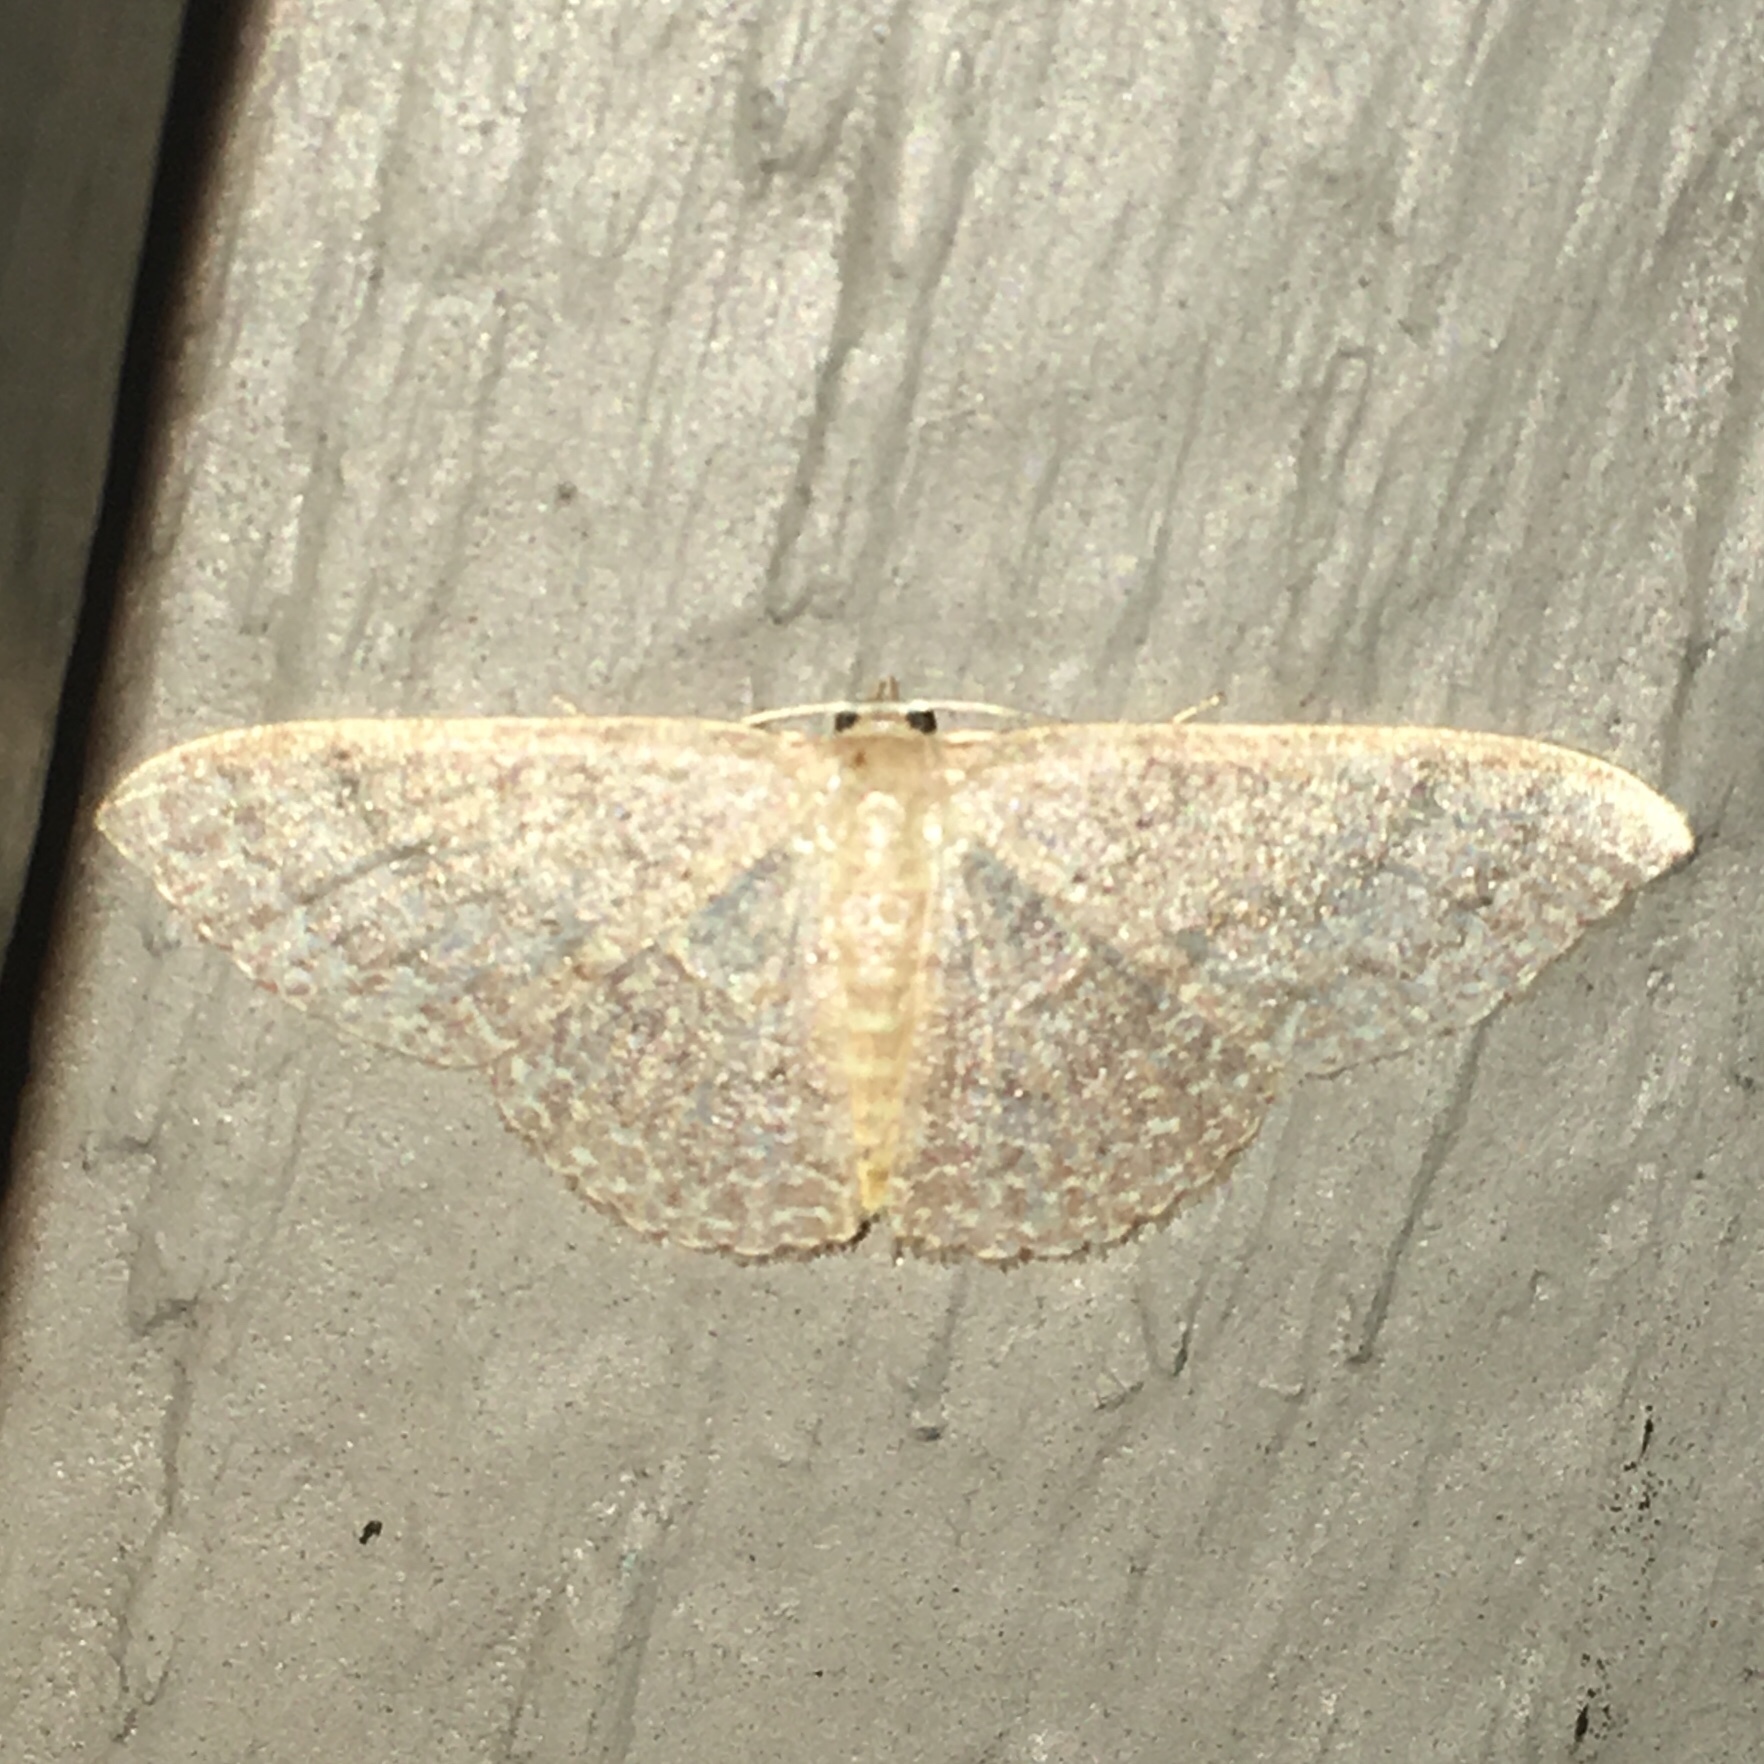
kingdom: Animalia
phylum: Arthropoda
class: Insecta
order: Lepidoptera
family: Geometridae
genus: Pleuroprucha
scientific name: Pleuroprucha insulsaria
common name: Common tan wave
